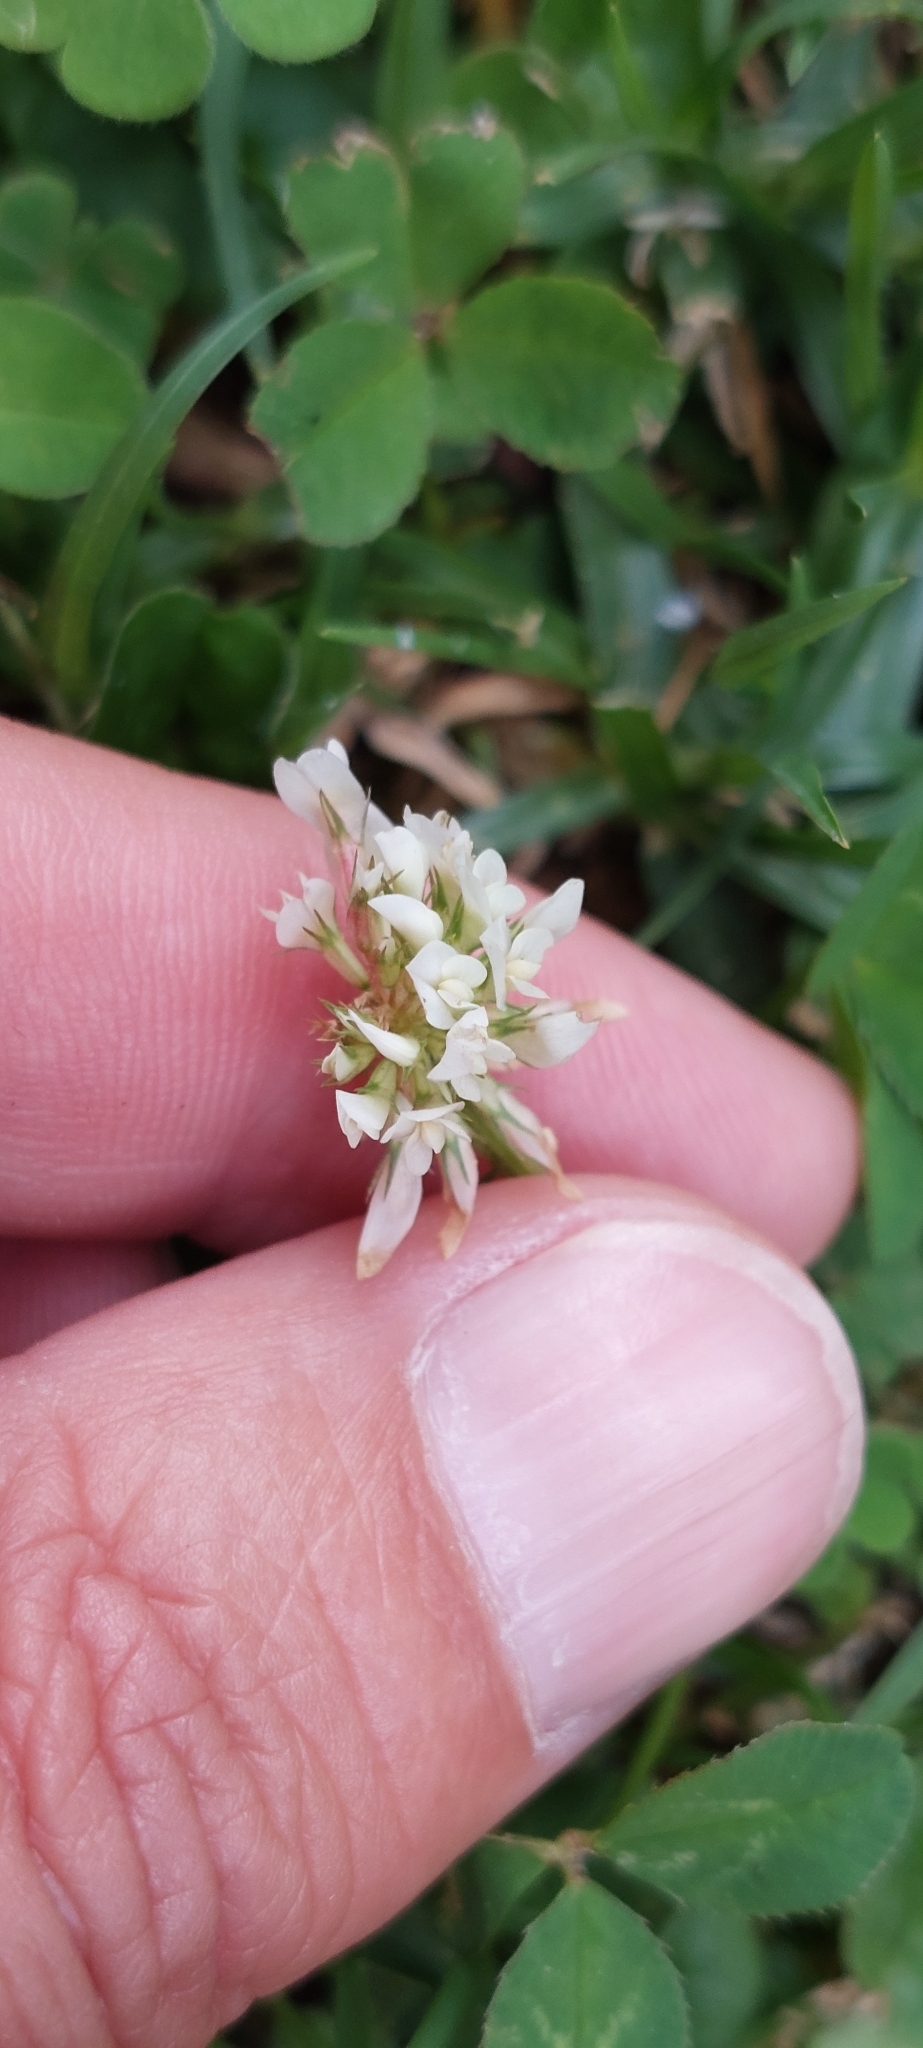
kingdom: Plantae
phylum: Tracheophyta
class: Magnoliopsida
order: Fabales
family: Fabaceae
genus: Trifolium
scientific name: Trifolium repens
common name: White clover
